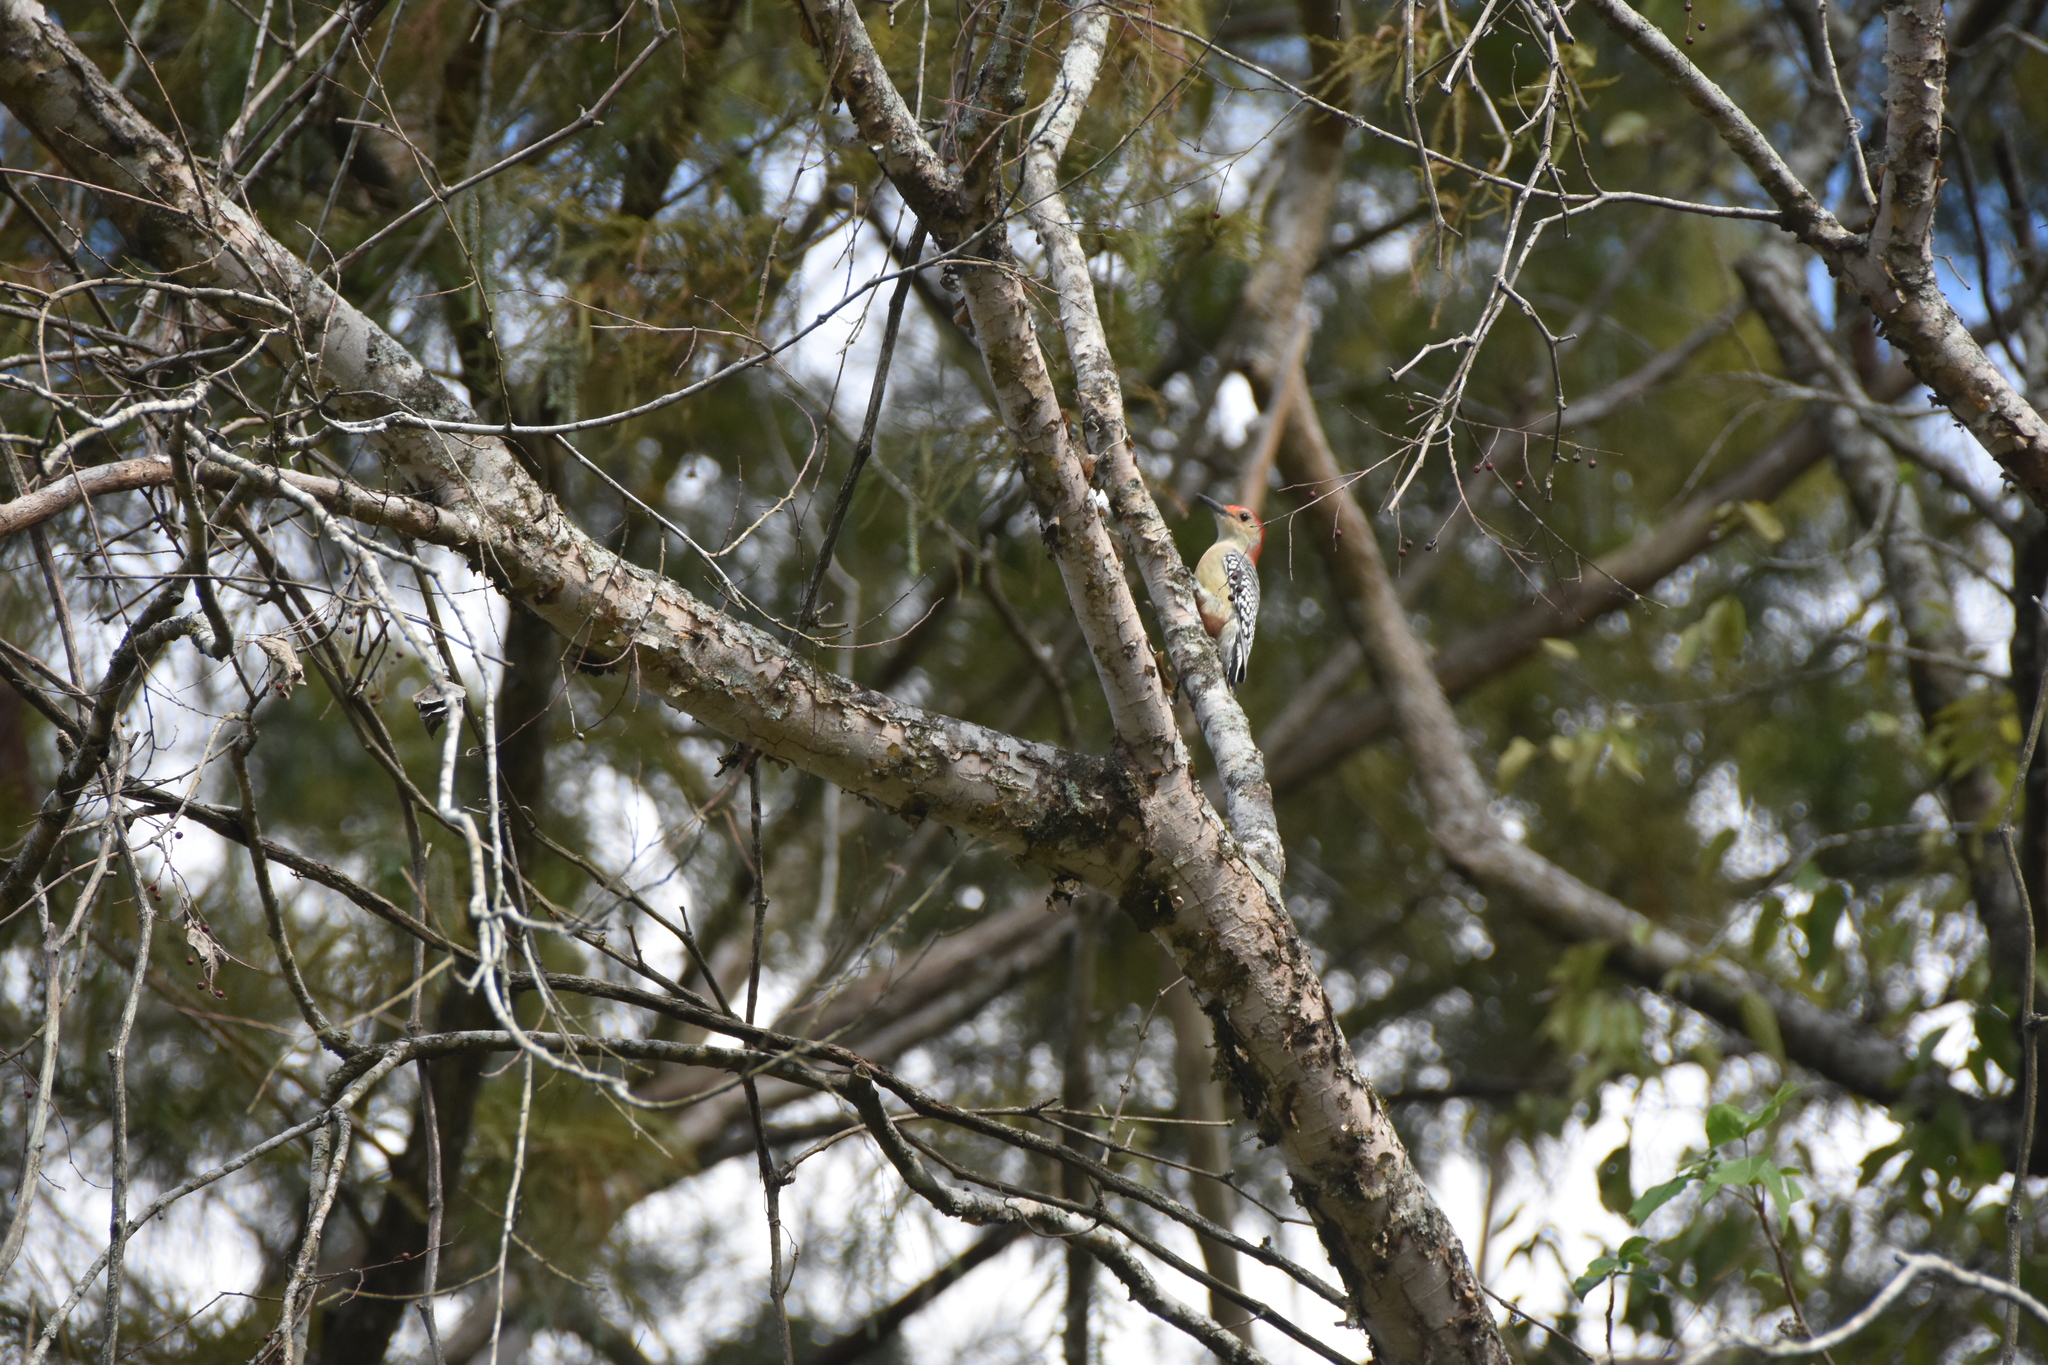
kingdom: Animalia
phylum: Chordata
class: Aves
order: Piciformes
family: Picidae
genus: Melanerpes
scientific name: Melanerpes carolinus
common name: Red-bellied woodpecker
